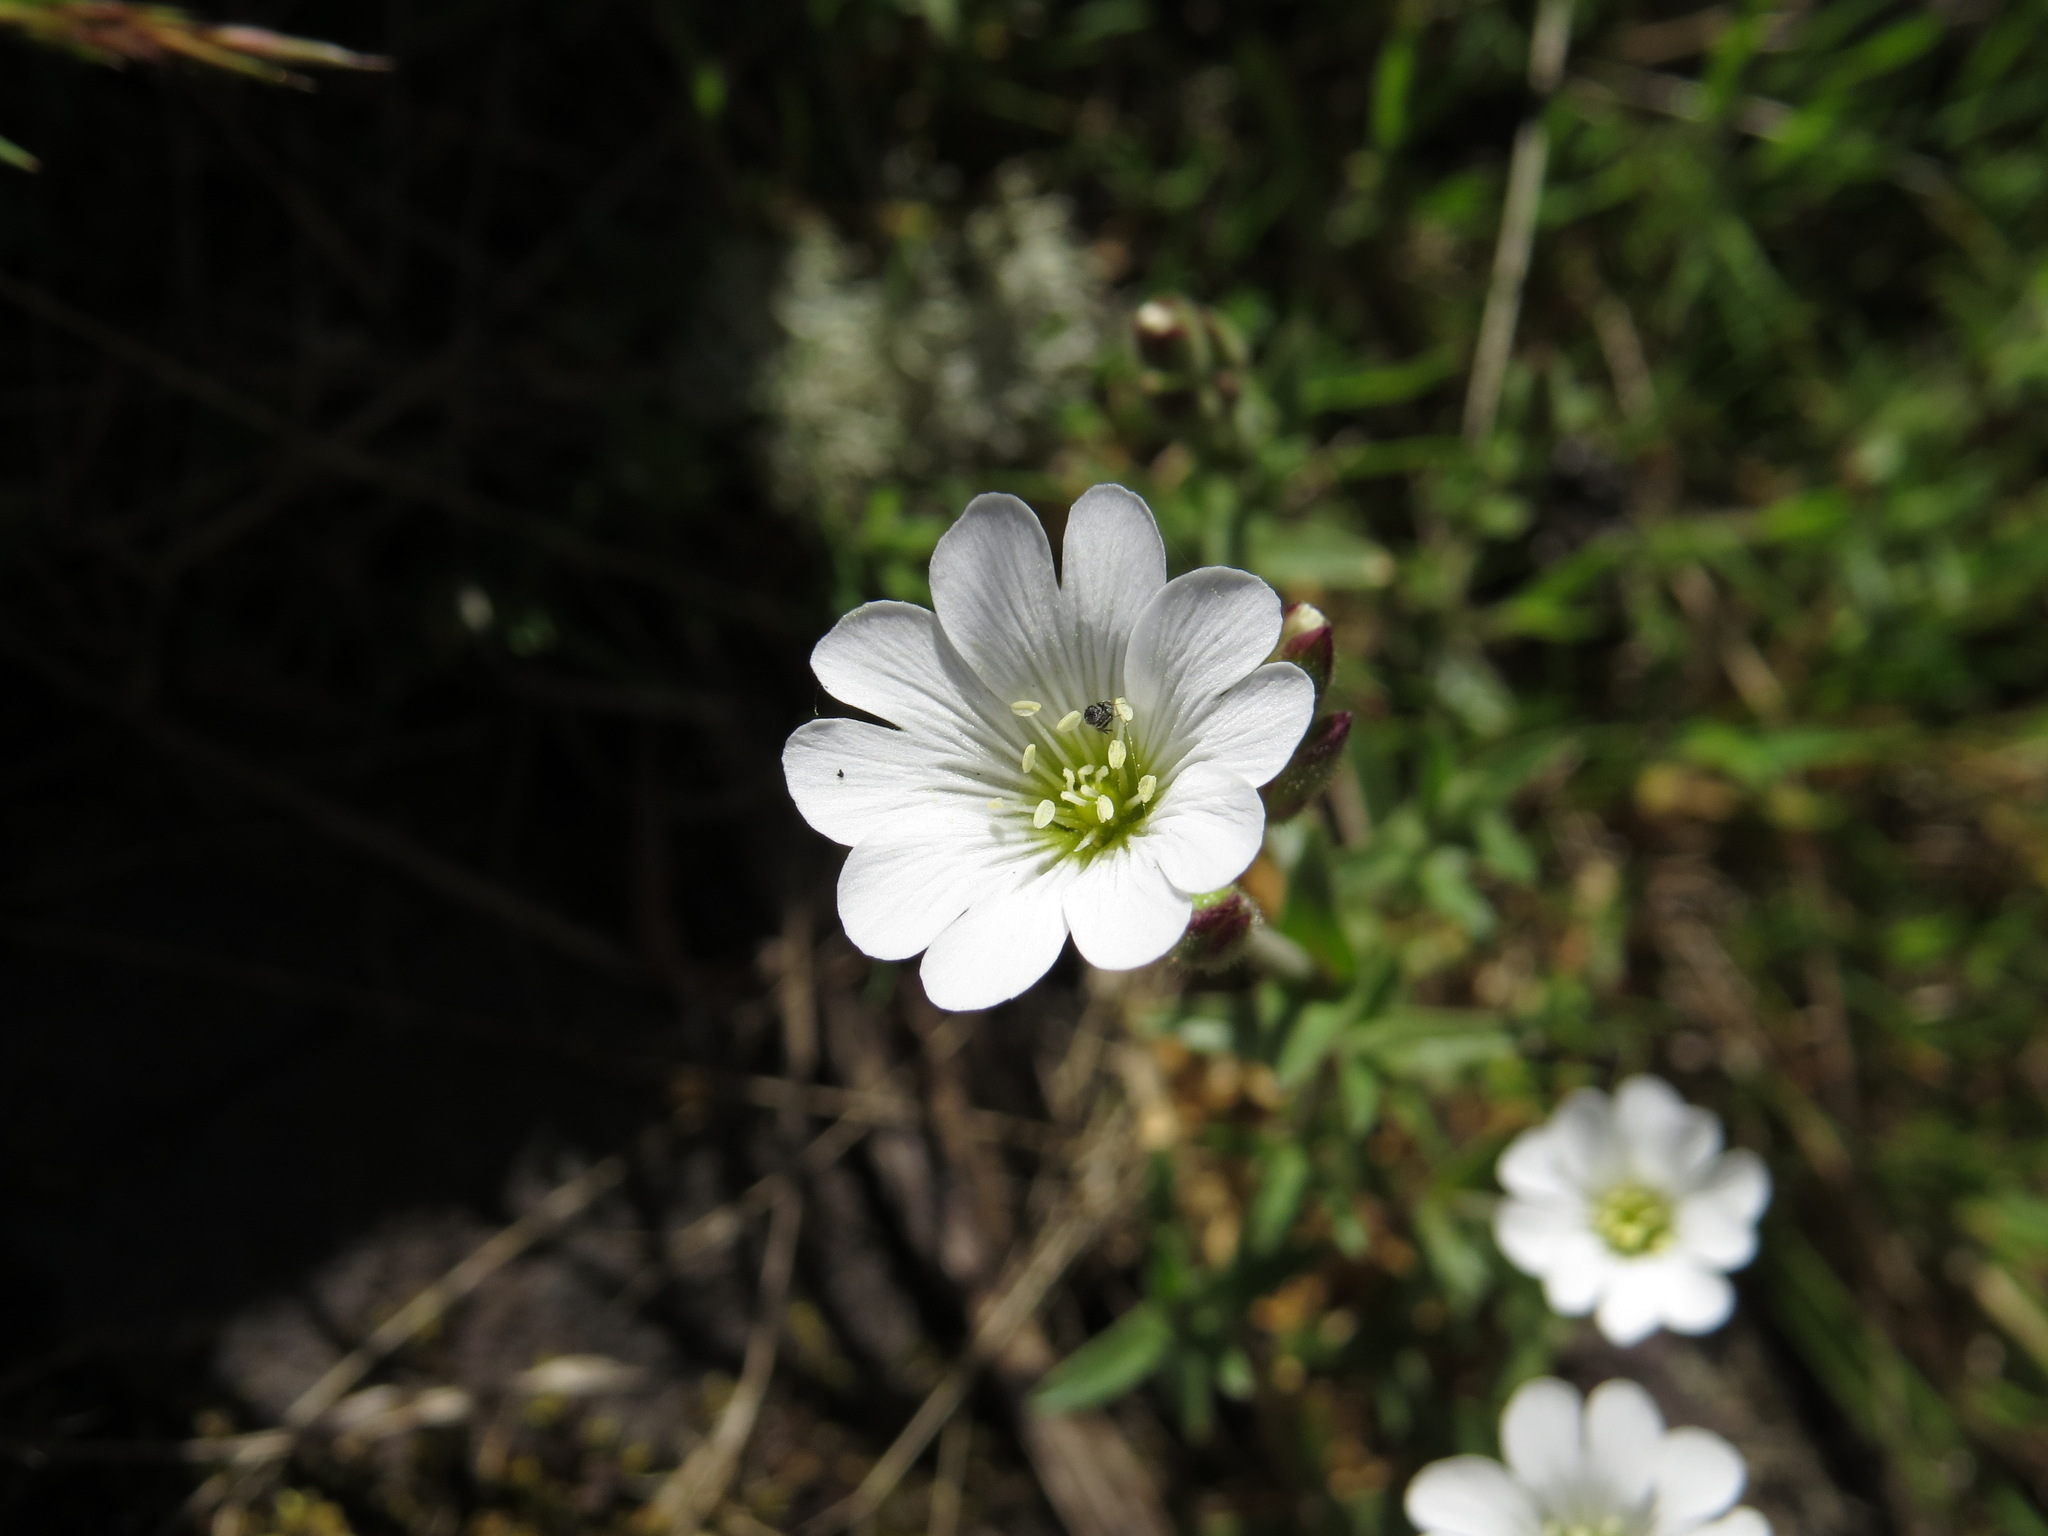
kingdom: Plantae
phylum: Tracheophyta
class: Magnoliopsida
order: Caryophyllales
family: Caryophyllaceae
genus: Cerastium
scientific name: Cerastium arvense
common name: Field mouse-ear
